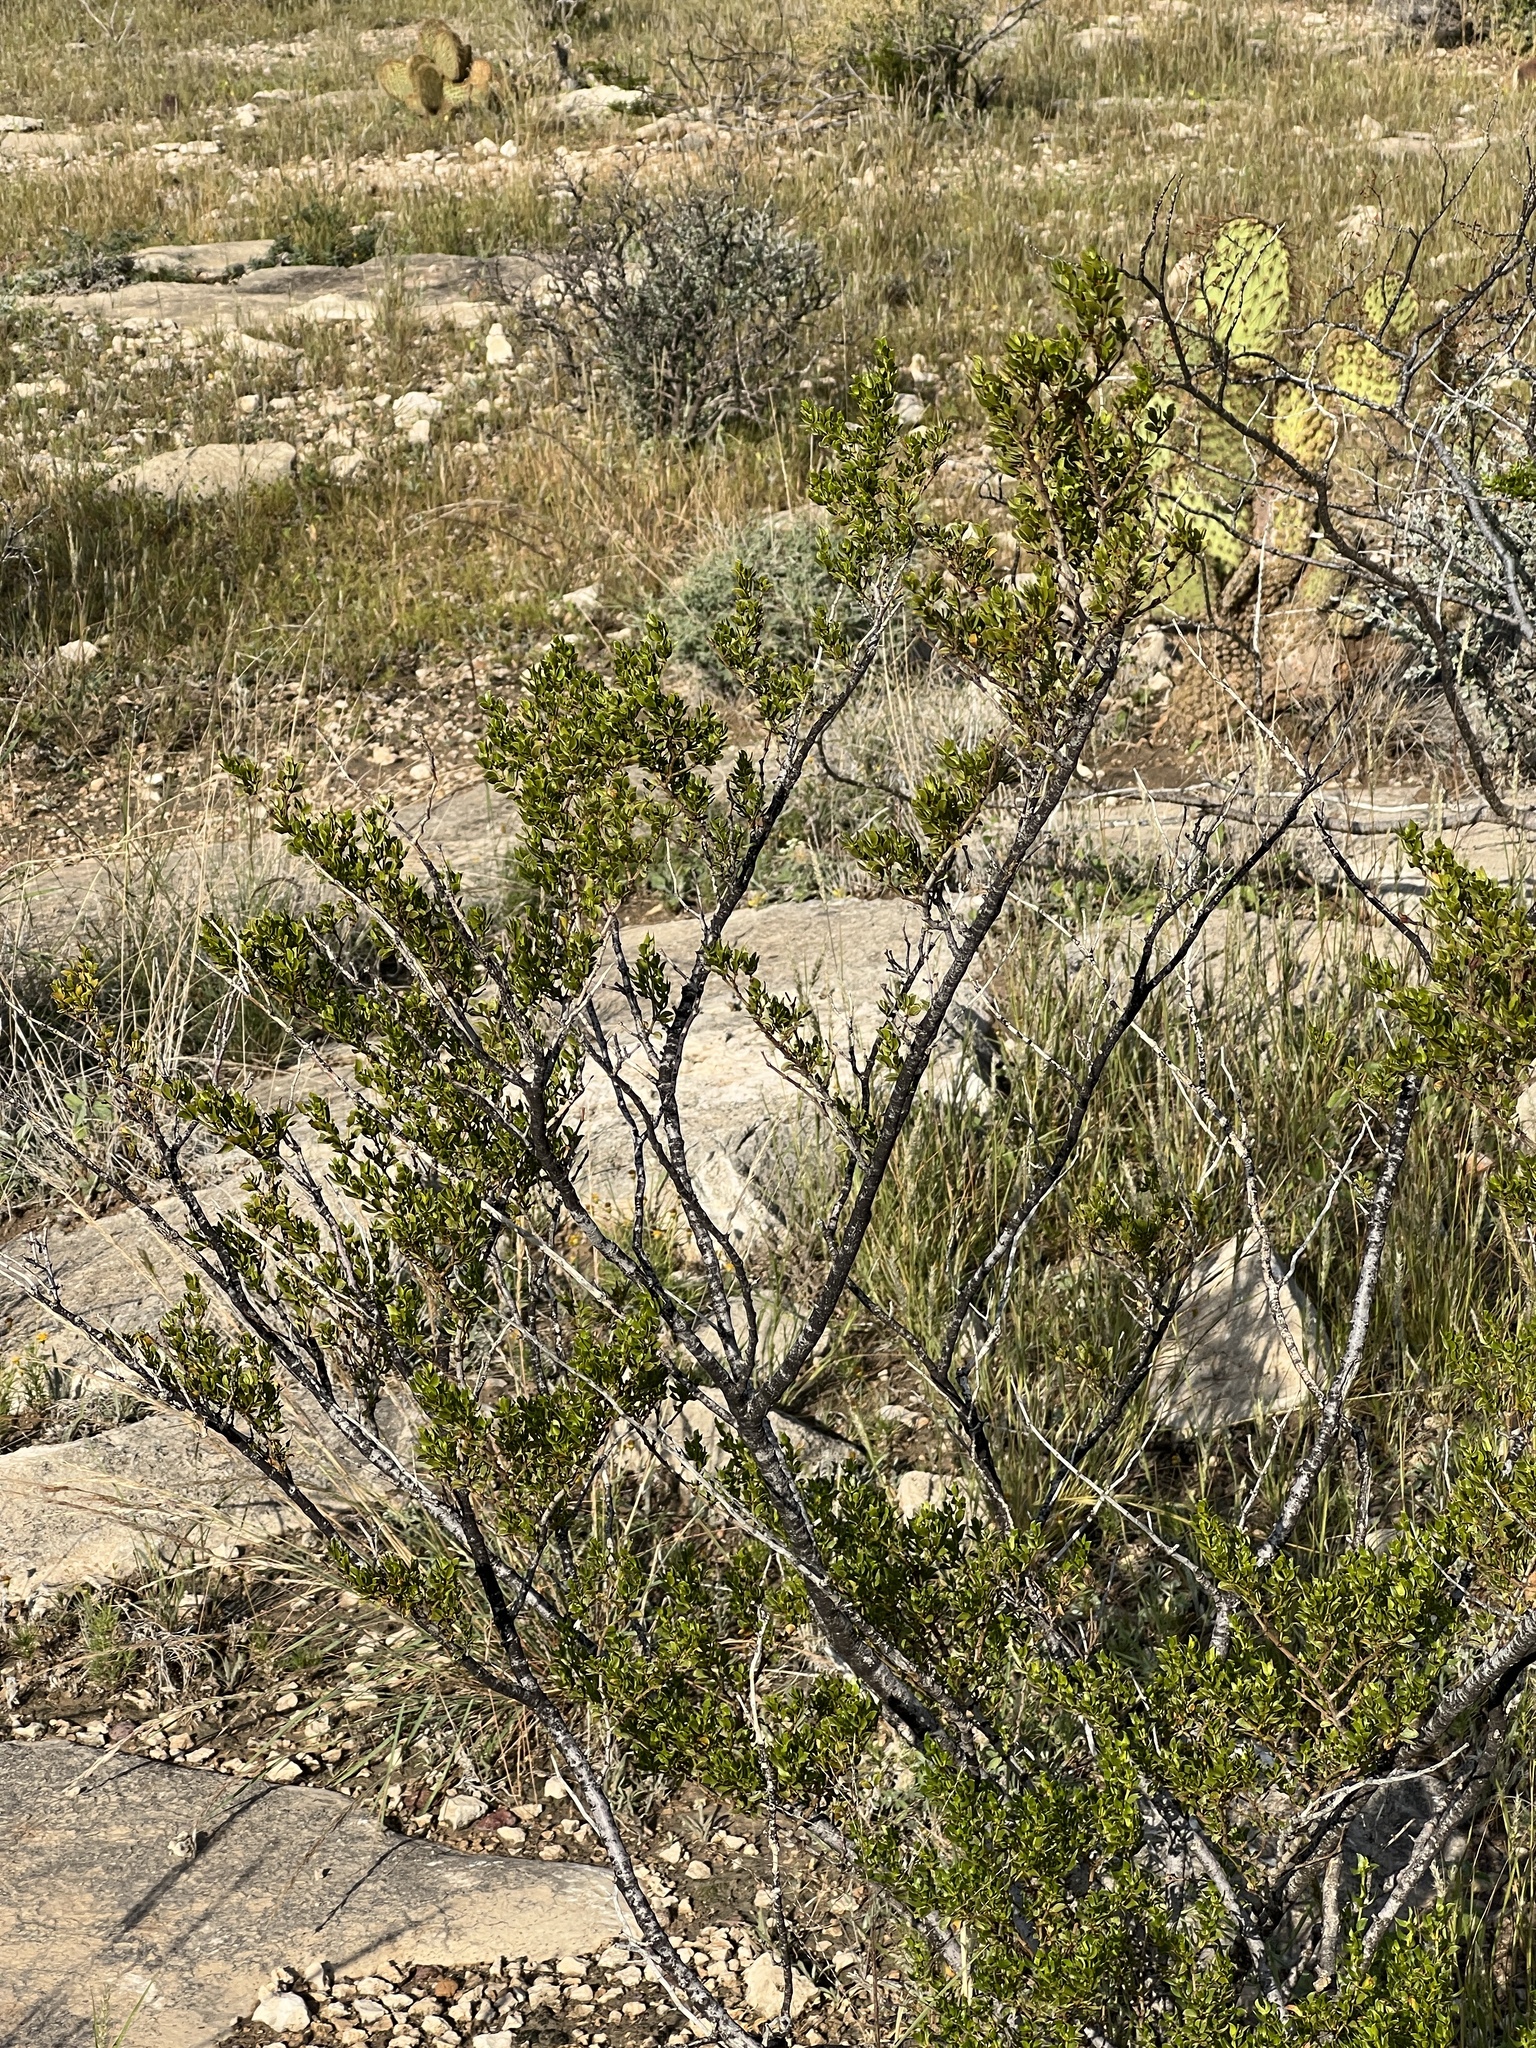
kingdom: Plantae
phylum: Tracheophyta
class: Magnoliopsida
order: Zygophyllales
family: Zygophyllaceae
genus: Larrea
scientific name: Larrea tridentata
